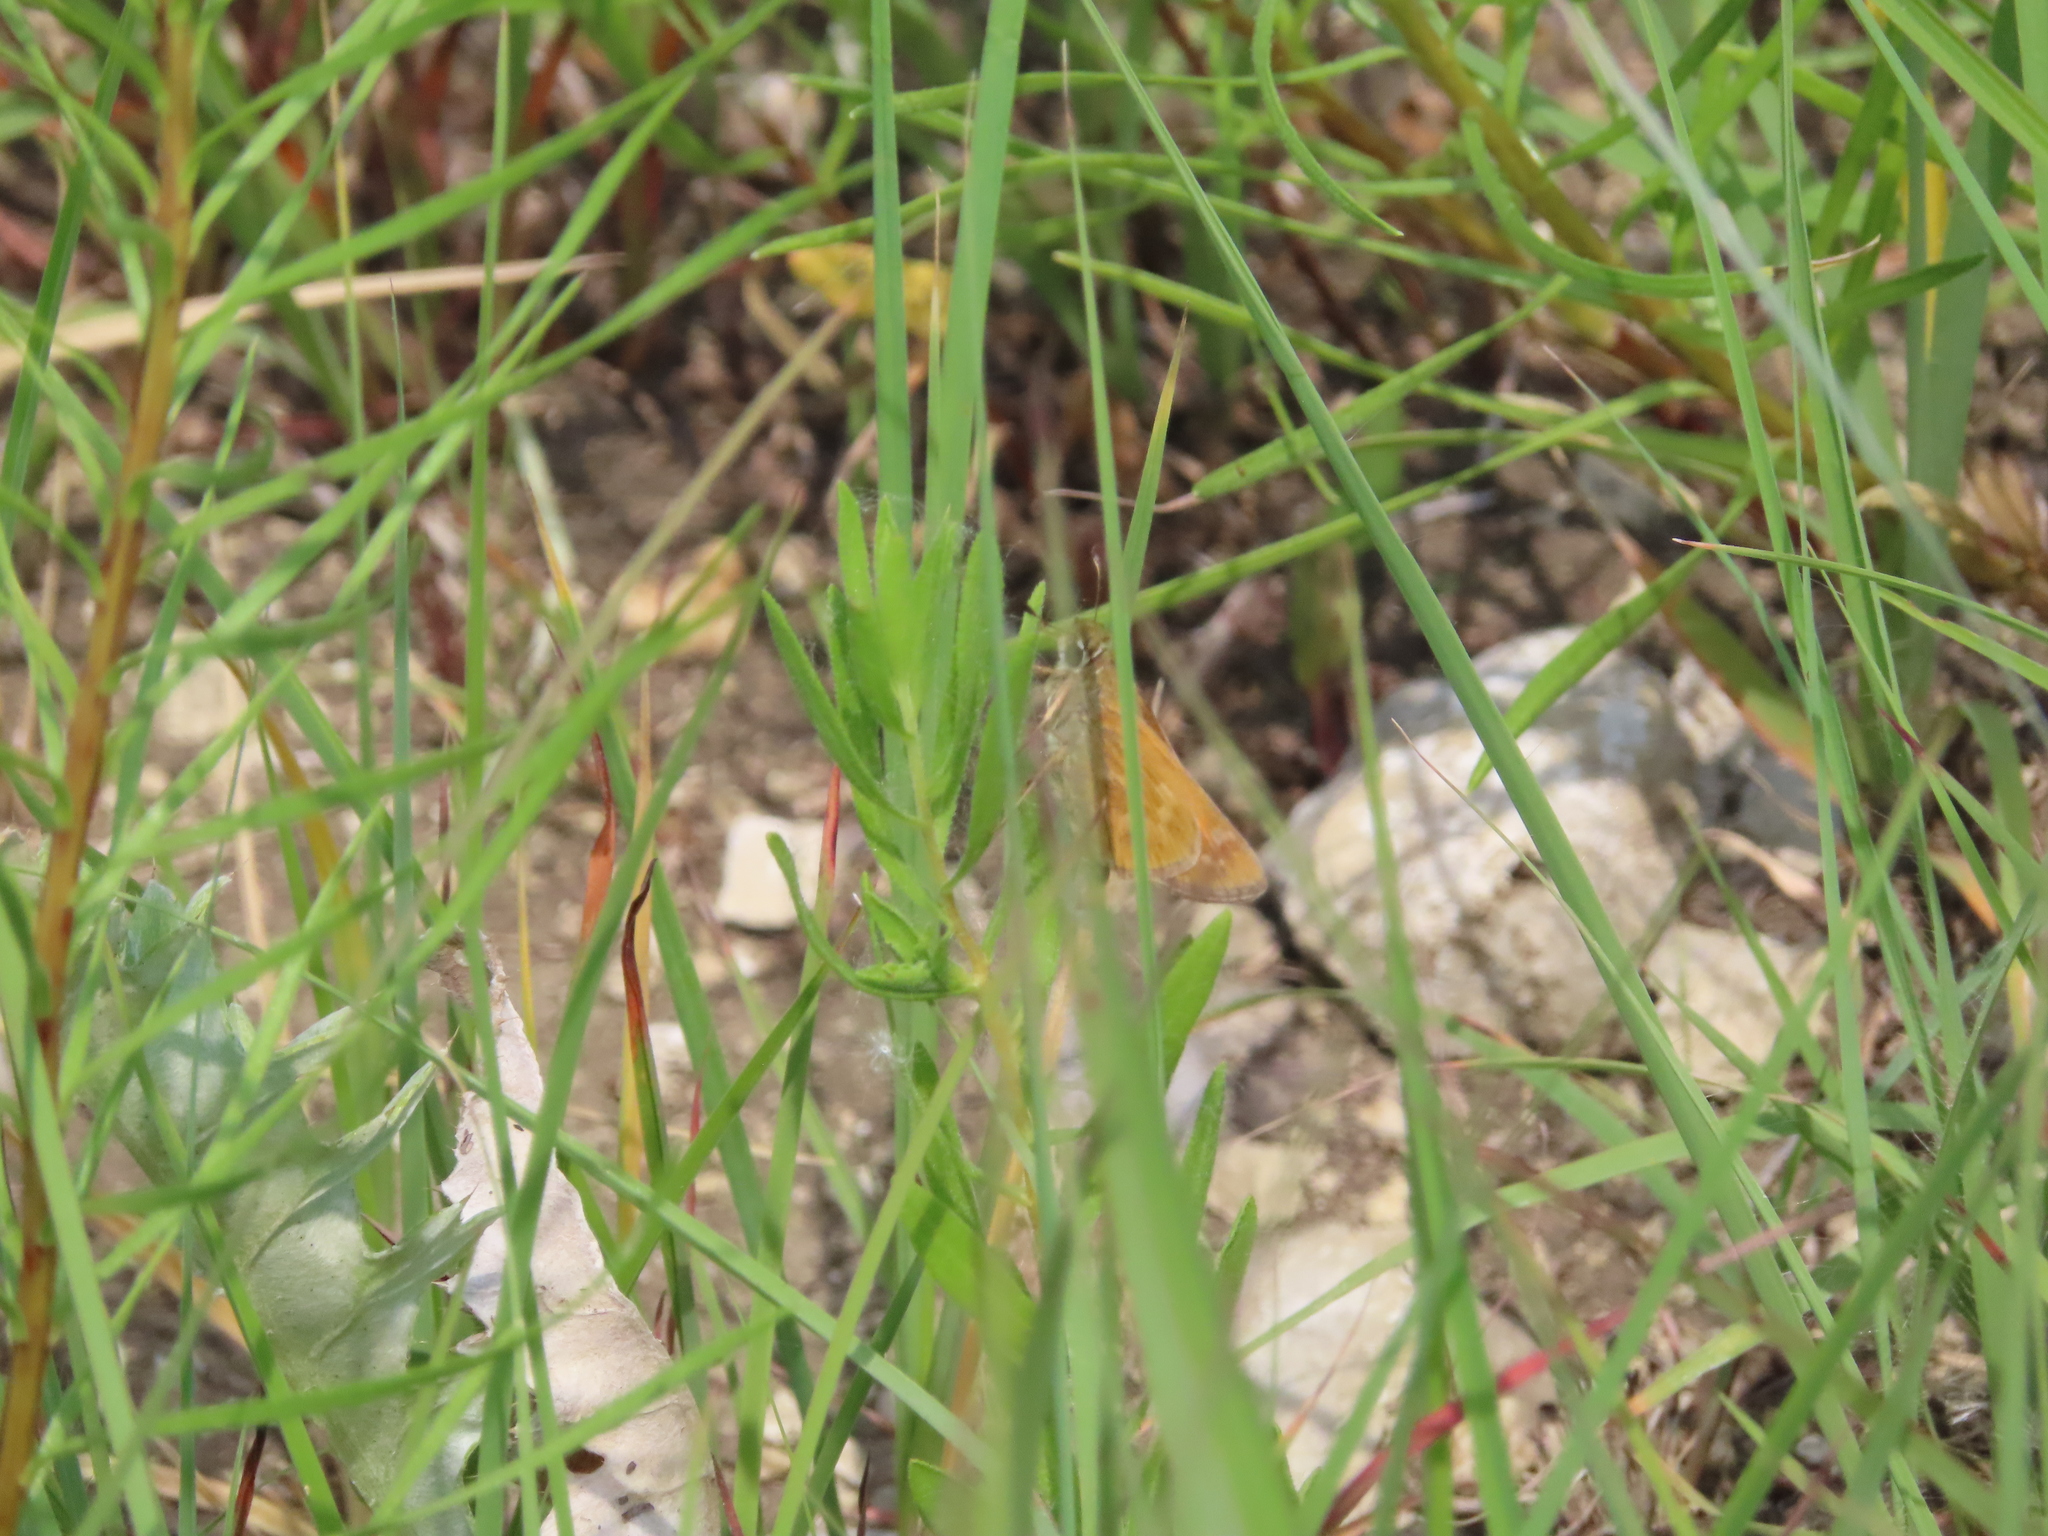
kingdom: Animalia
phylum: Arthropoda
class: Insecta
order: Lepidoptera
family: Hesperiidae
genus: Atalopedes
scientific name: Atalopedes
